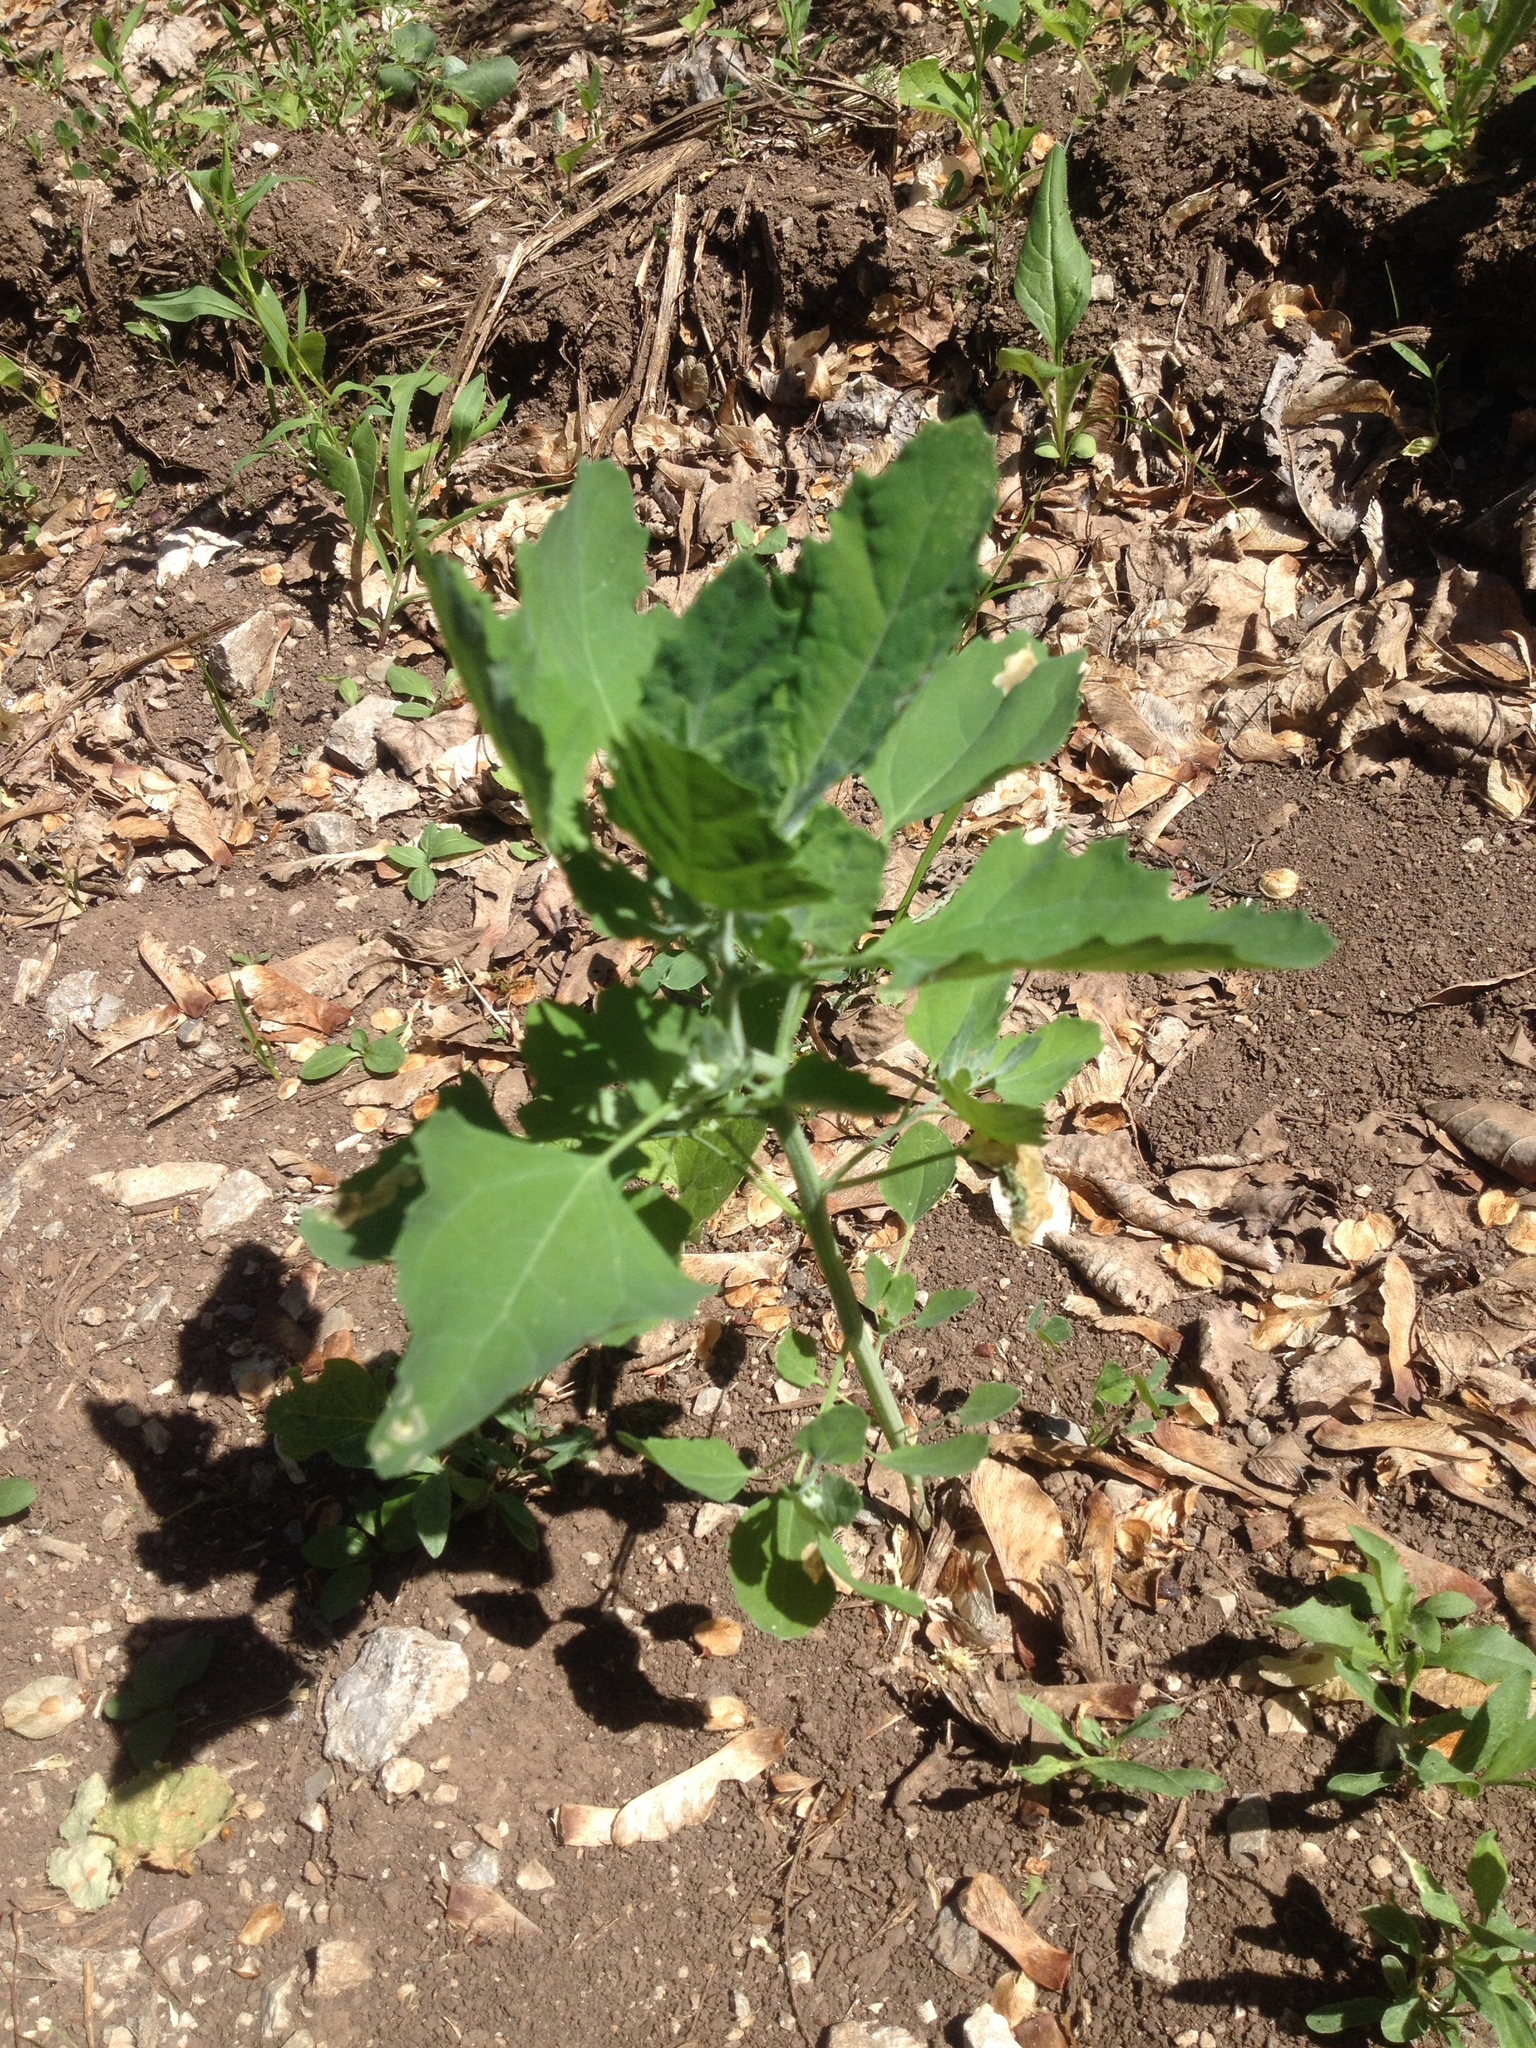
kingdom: Plantae
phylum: Tracheophyta
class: Magnoliopsida
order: Caryophyllales
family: Amaranthaceae
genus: Chenopodium
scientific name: Chenopodium album
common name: Fat-hen
